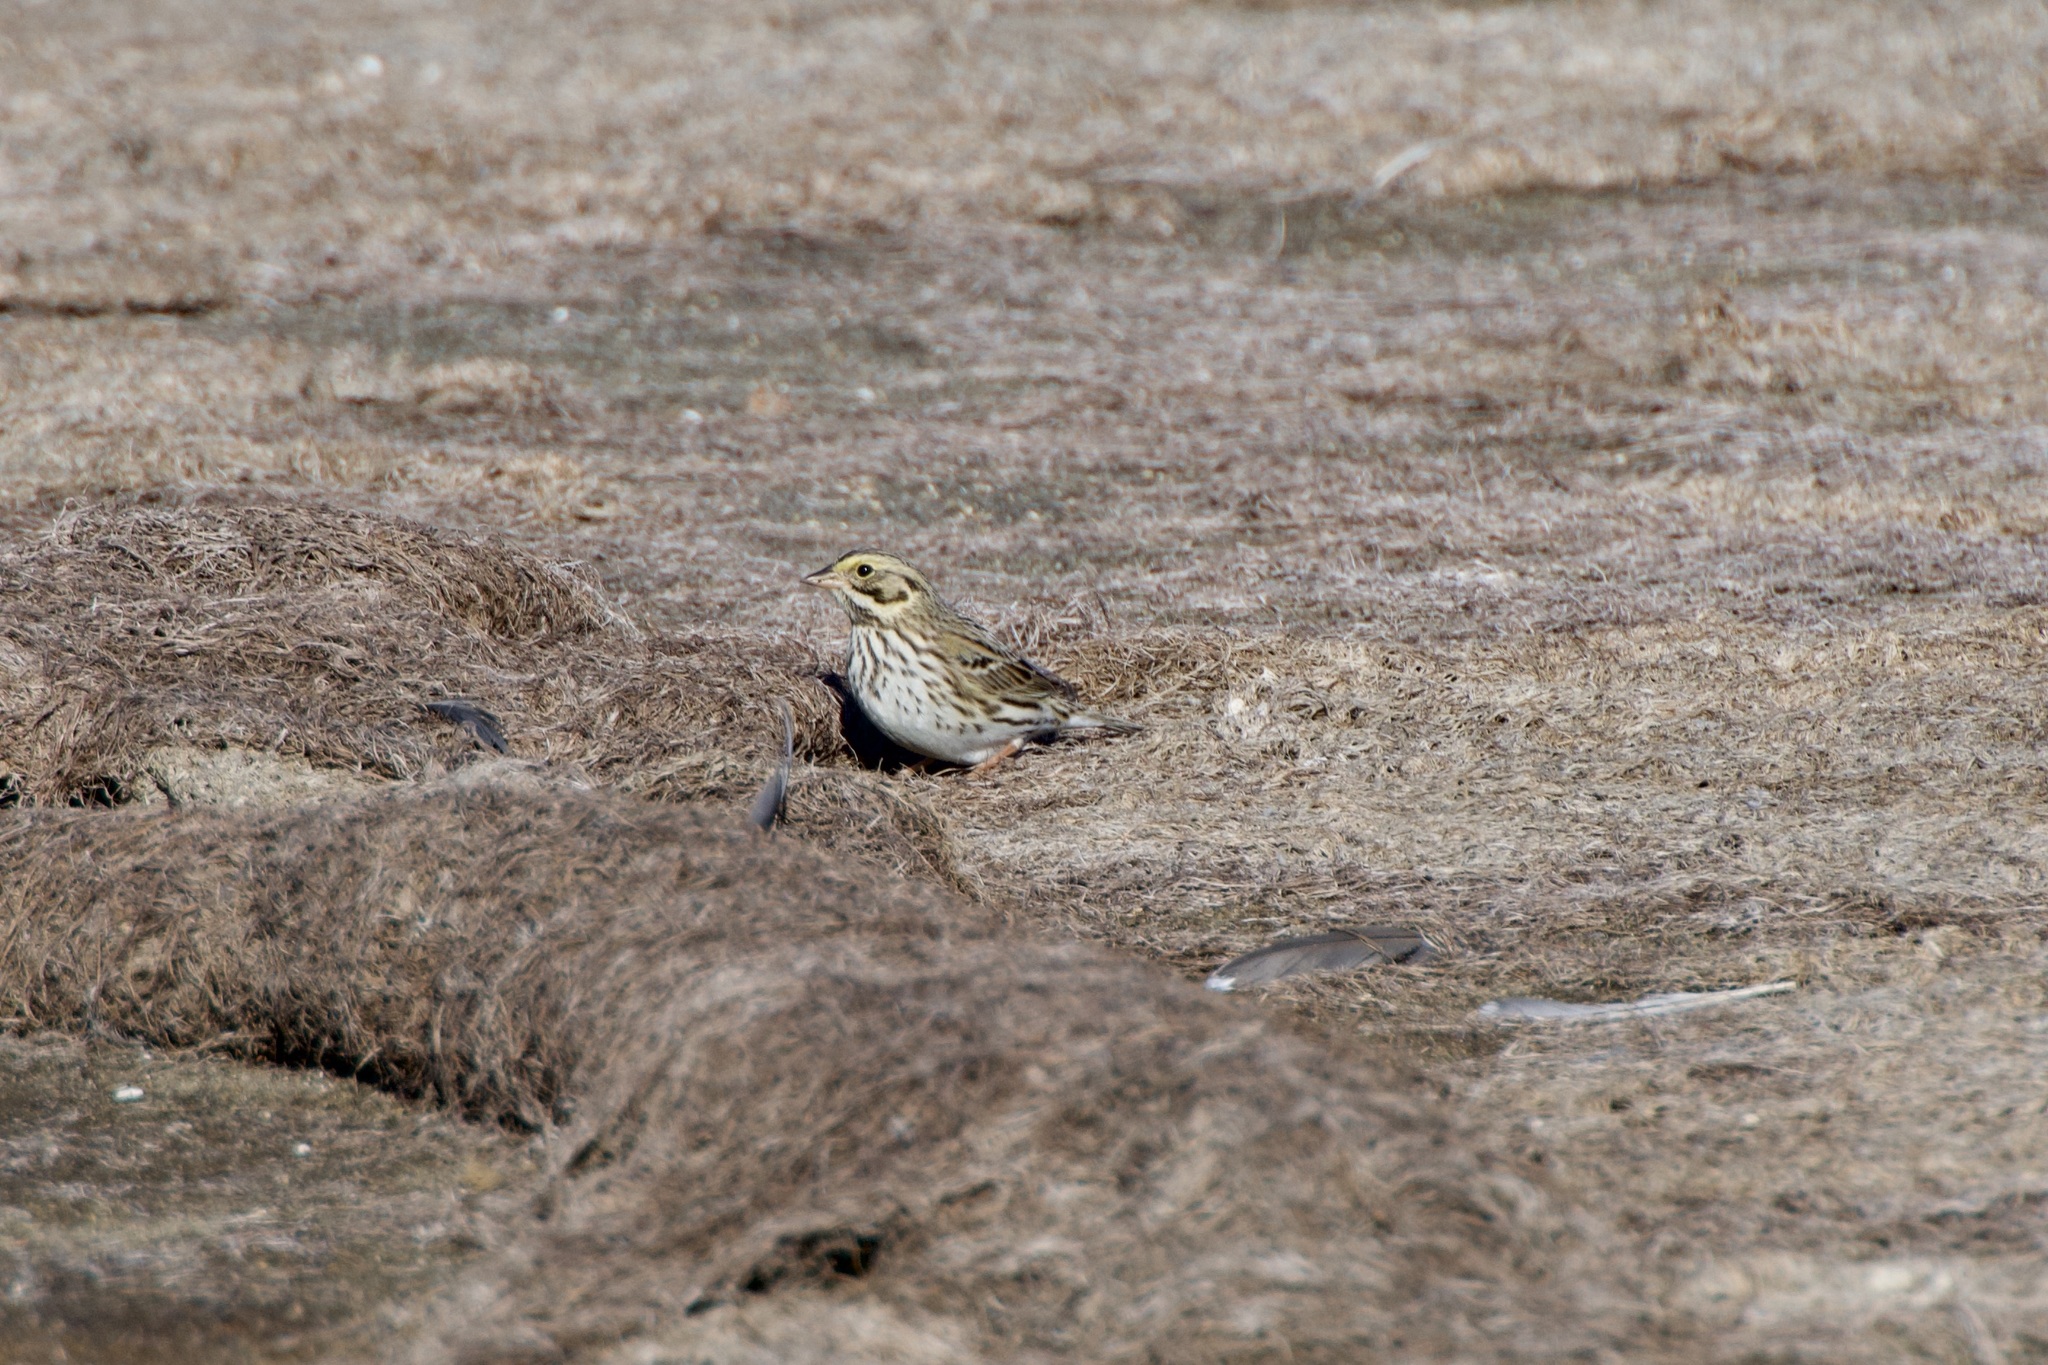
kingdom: Animalia
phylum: Chordata
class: Aves
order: Passeriformes
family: Passerellidae
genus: Passerculus
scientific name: Passerculus sandwichensis
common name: Savannah sparrow
